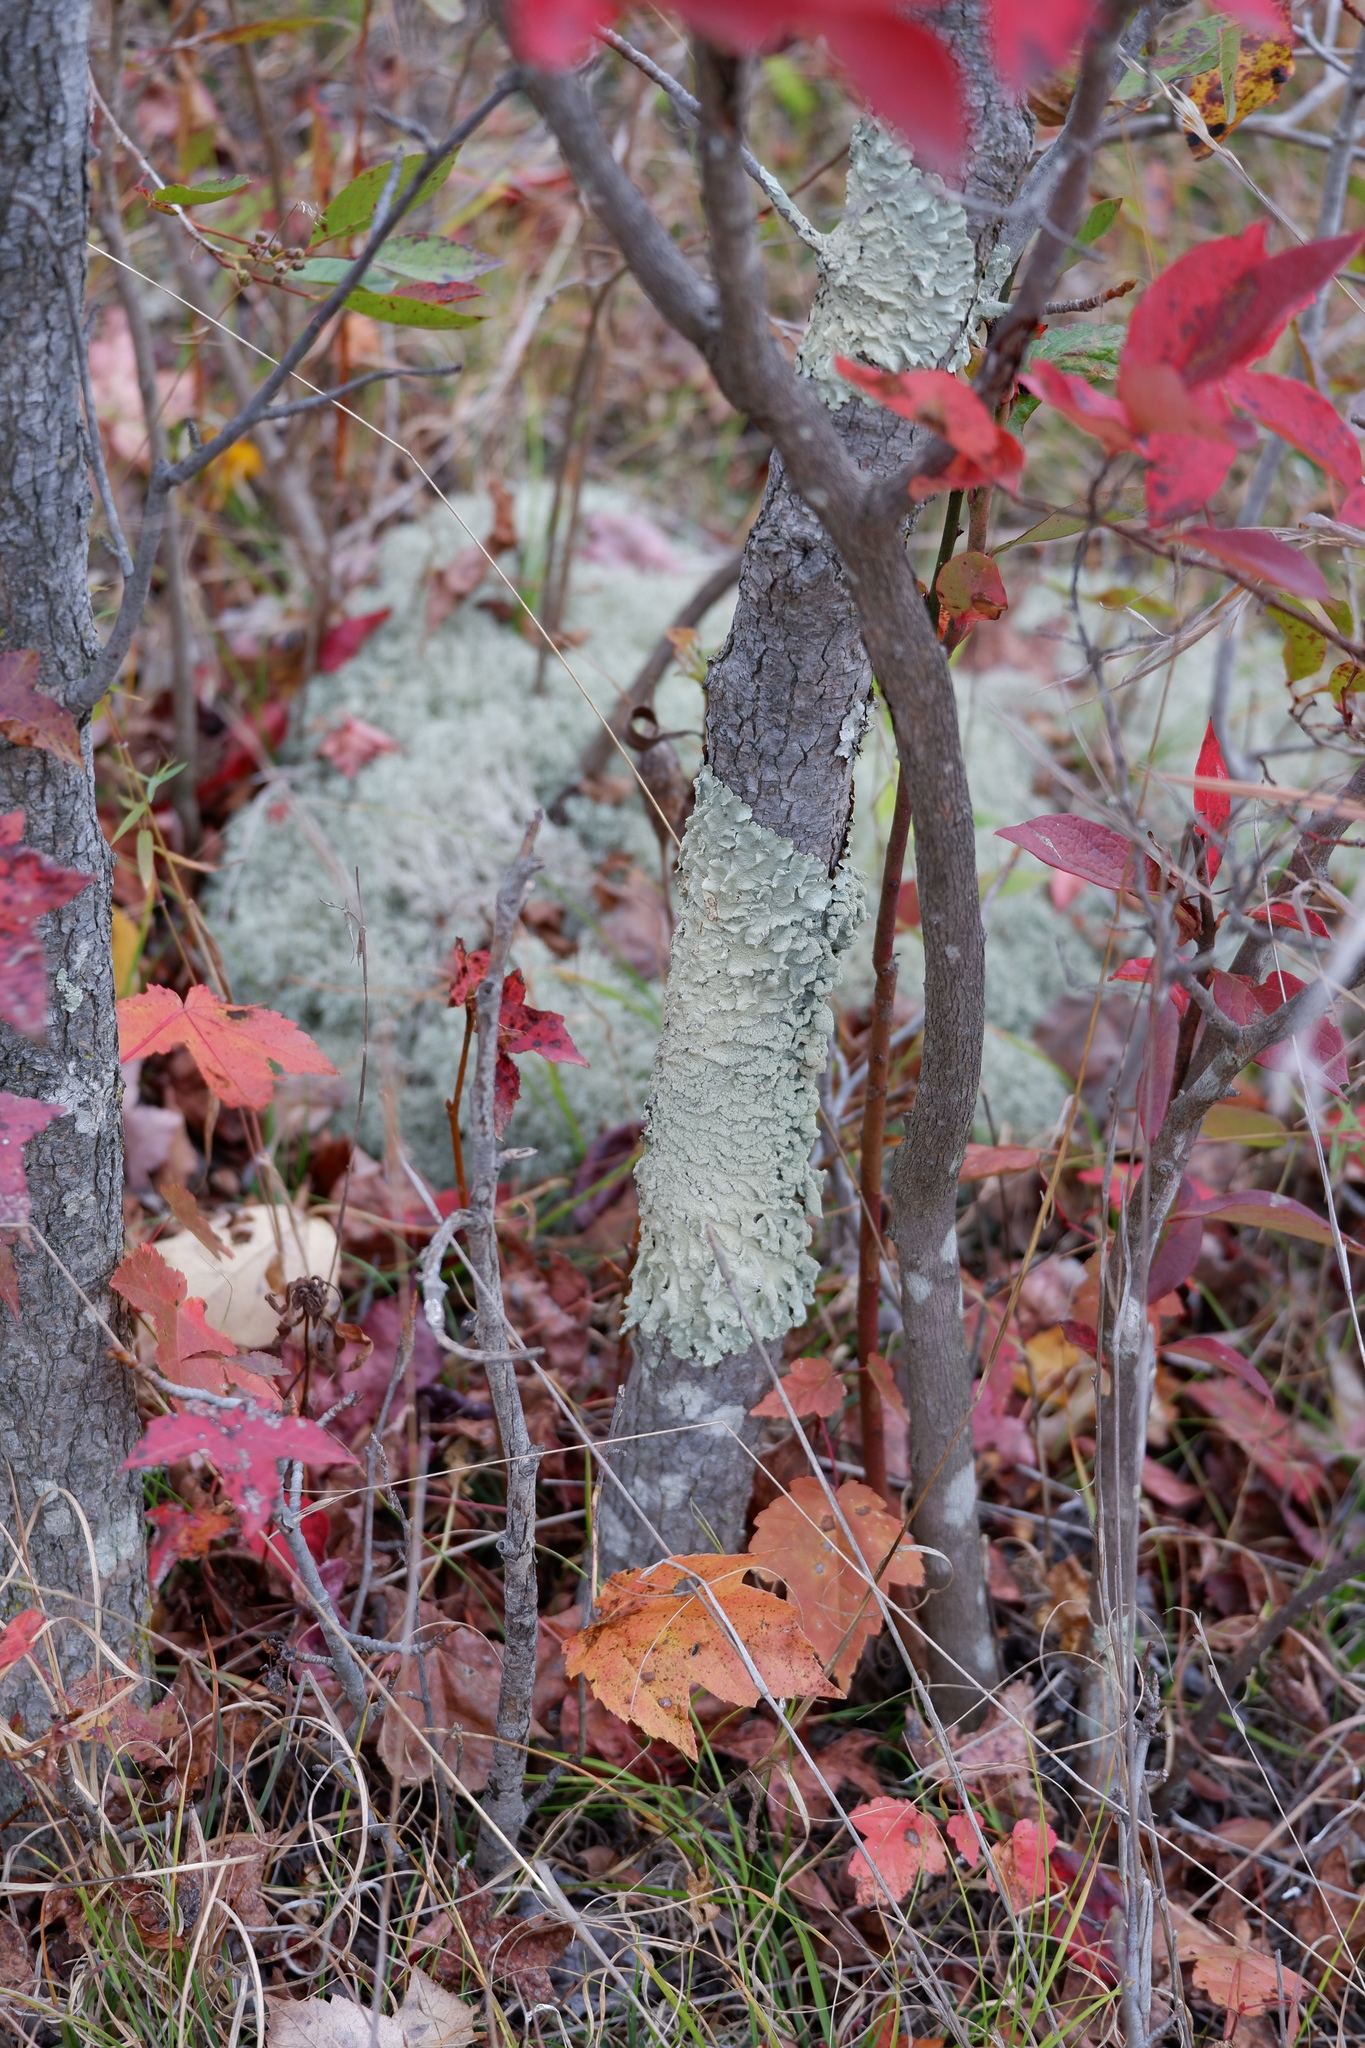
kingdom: Fungi
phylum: Ascomycota
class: Lecanoromycetes
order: Lecanorales
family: Parmeliaceae
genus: Flavoparmelia
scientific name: Flavoparmelia caperata
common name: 40-mile per hour lichen
